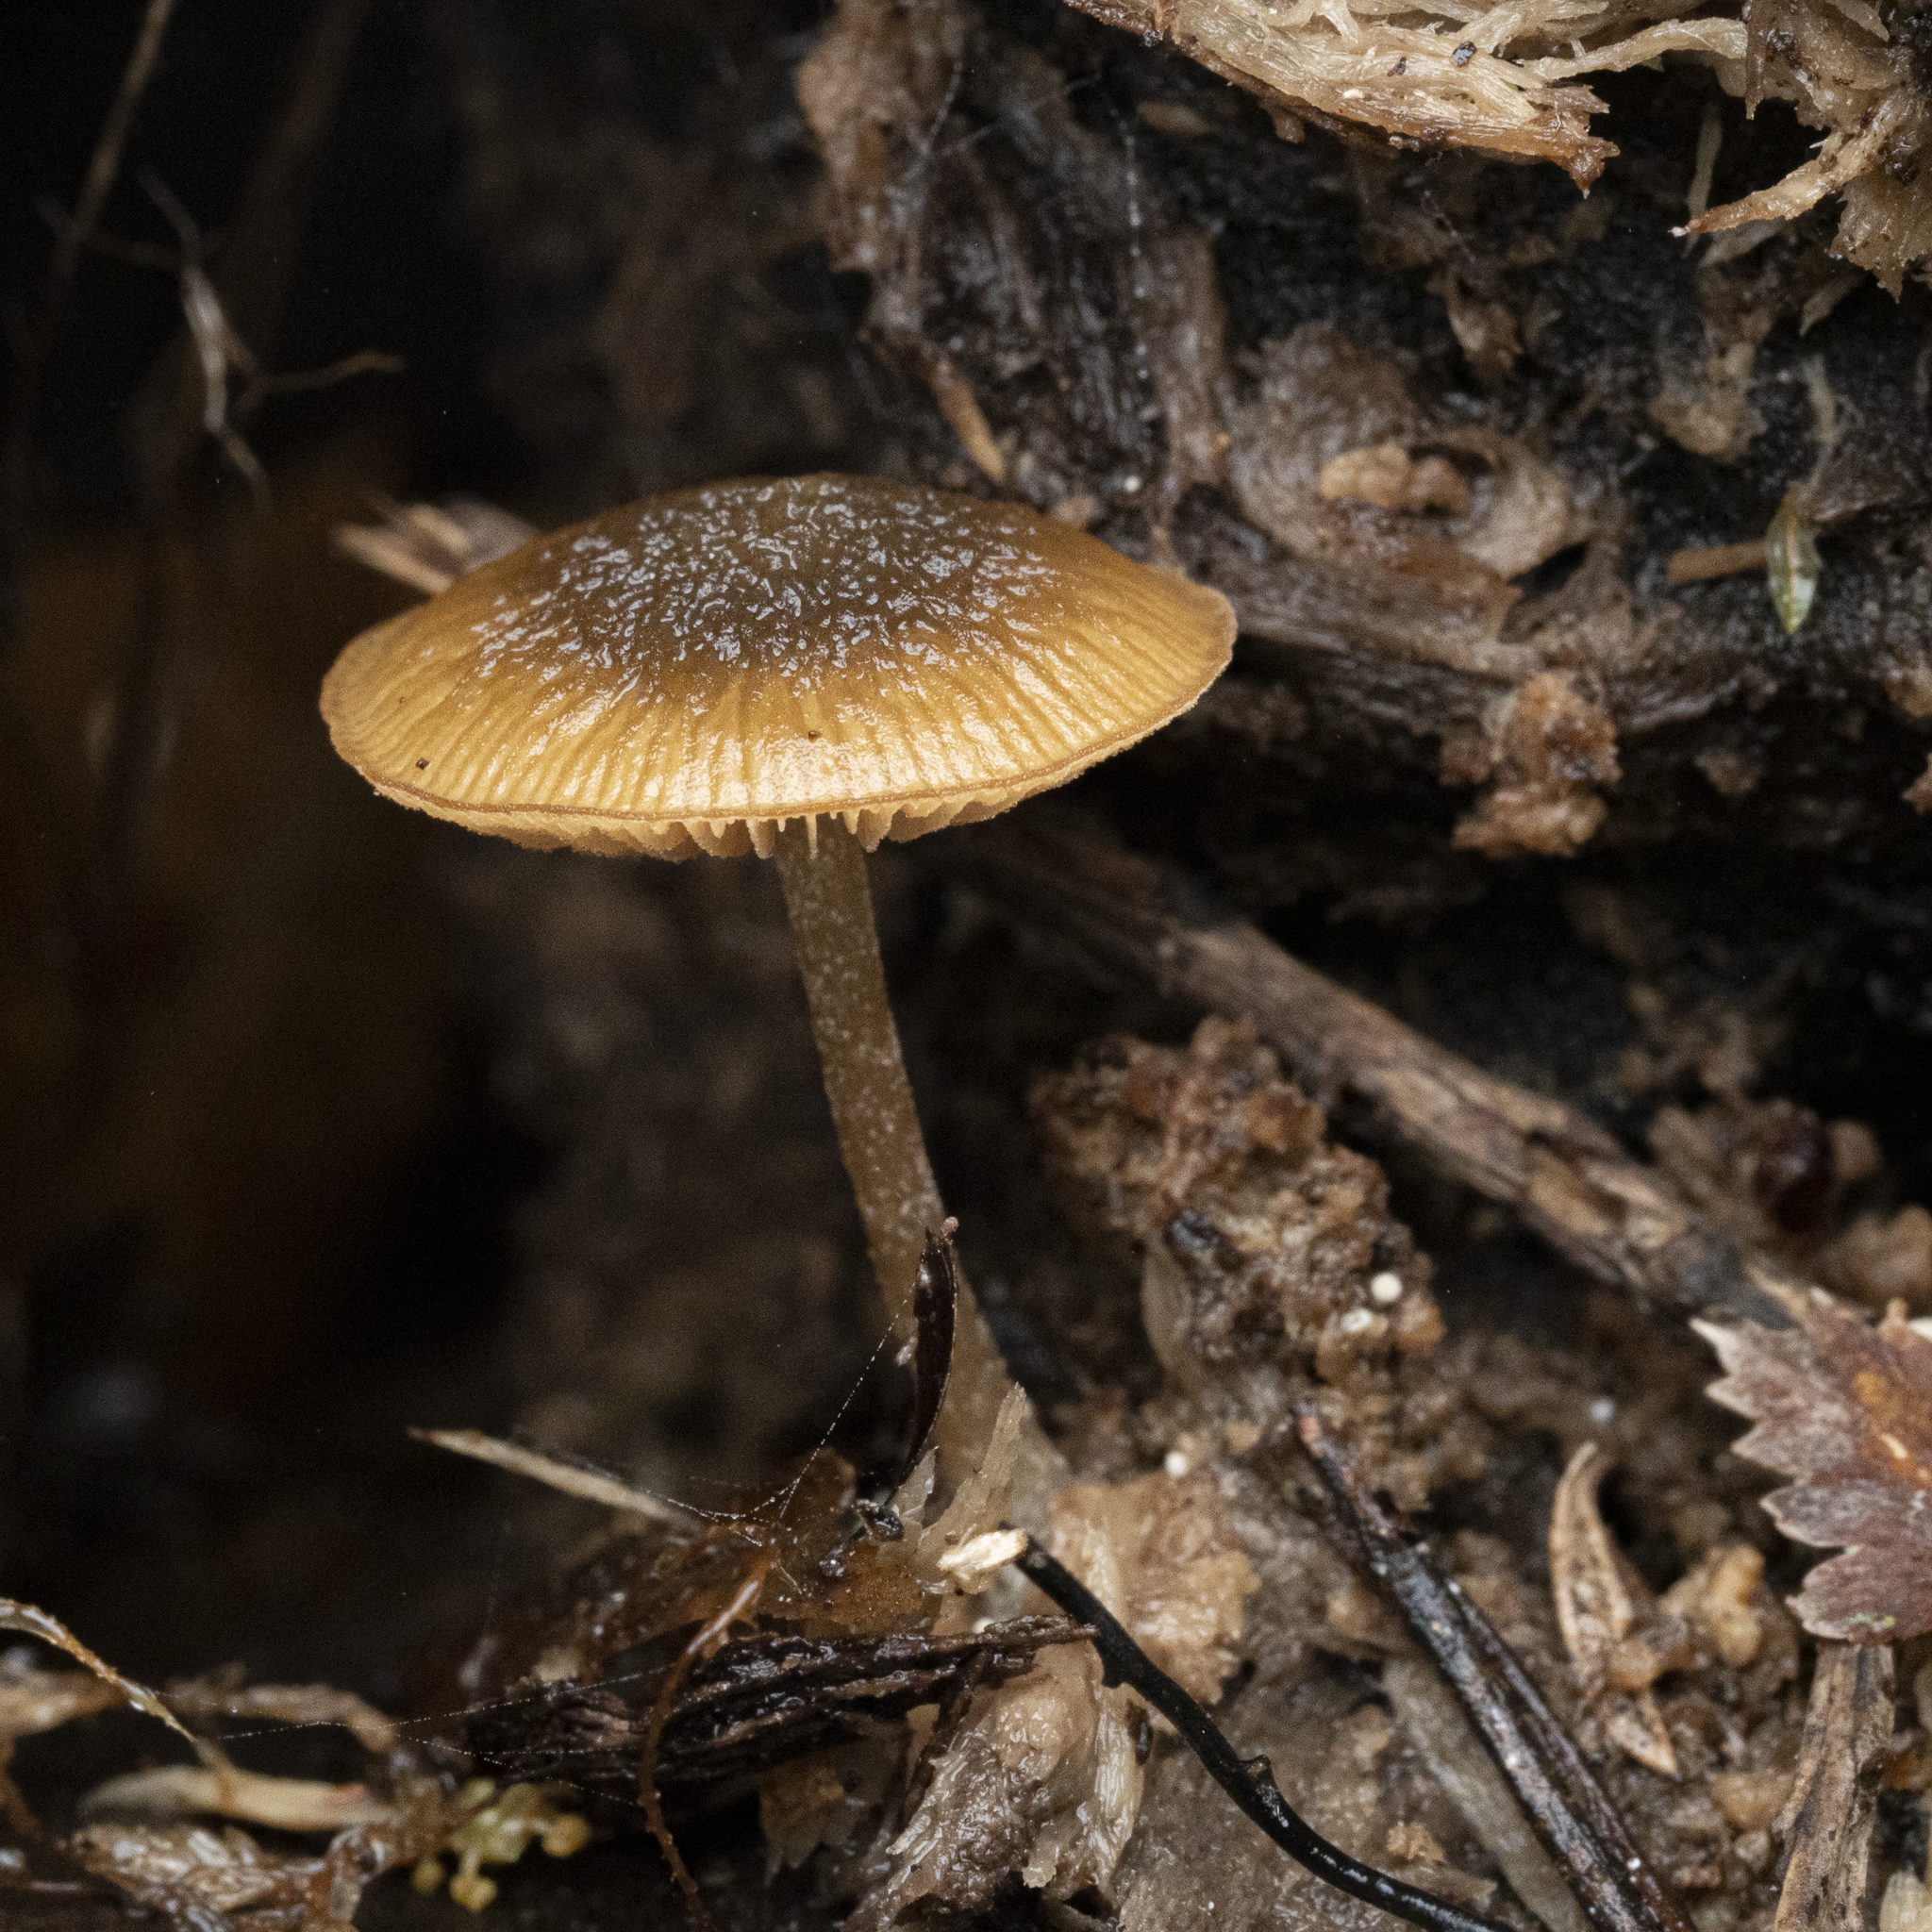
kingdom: Fungi
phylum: Basidiomycota
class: Agaricomycetes
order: Agaricales
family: Crepidotaceae
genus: Simocybe
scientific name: Simocybe phlebophora
